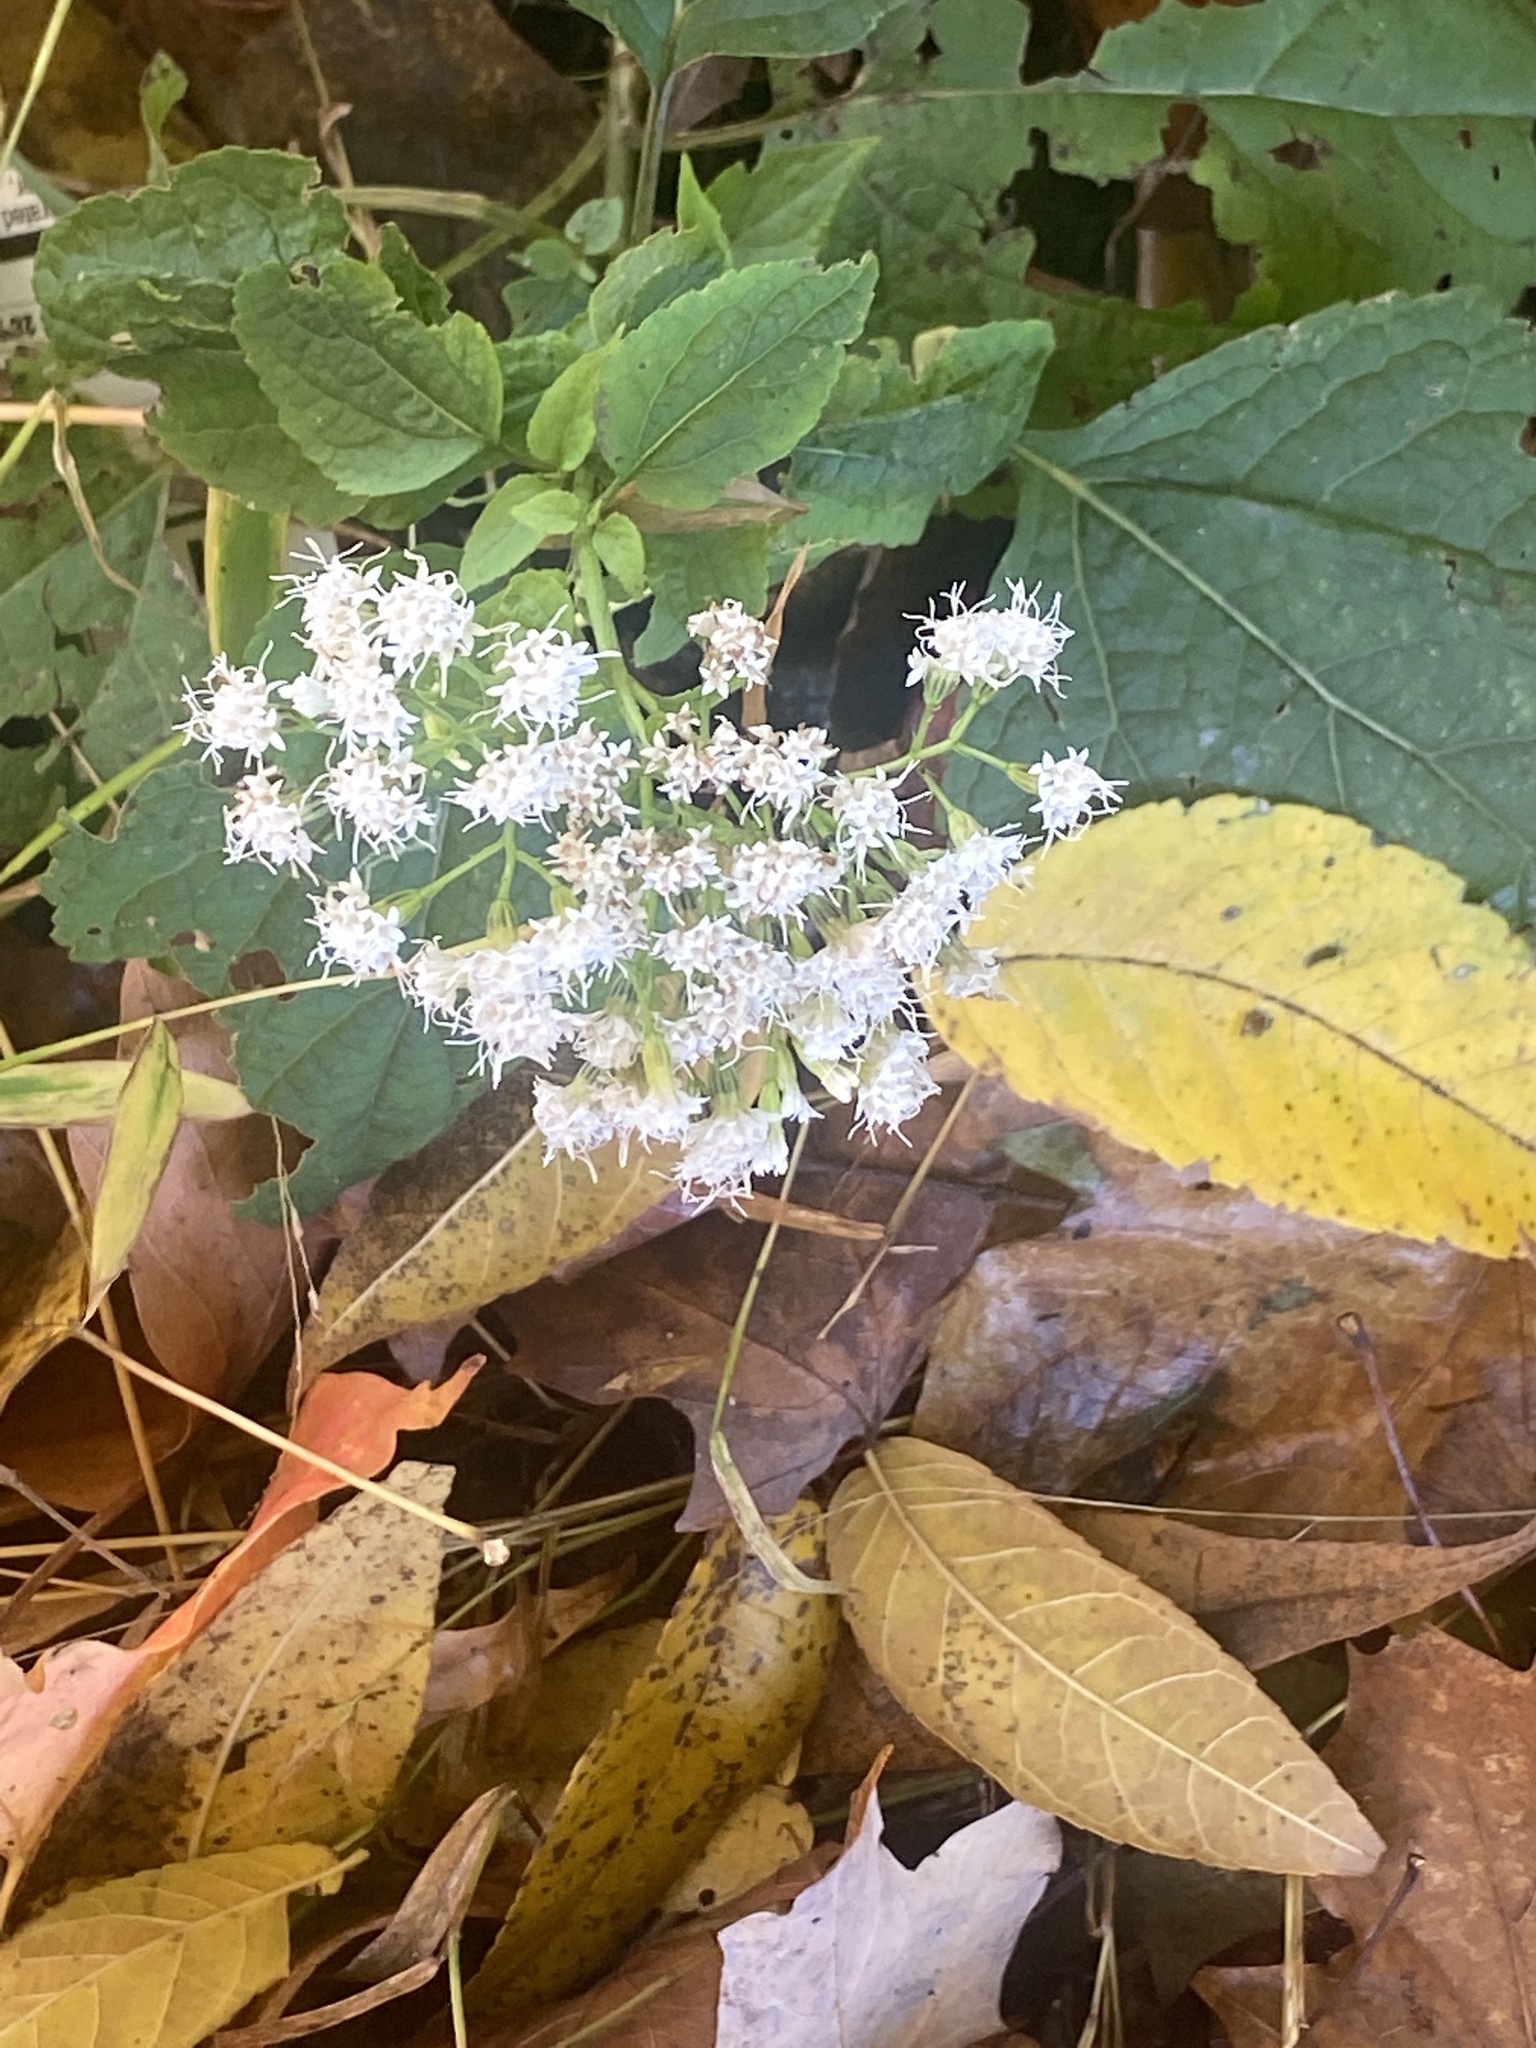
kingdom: Plantae
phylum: Tracheophyta
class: Magnoliopsida
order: Asterales
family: Asteraceae
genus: Ageratina
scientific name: Ageratina altissima
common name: White snakeroot
